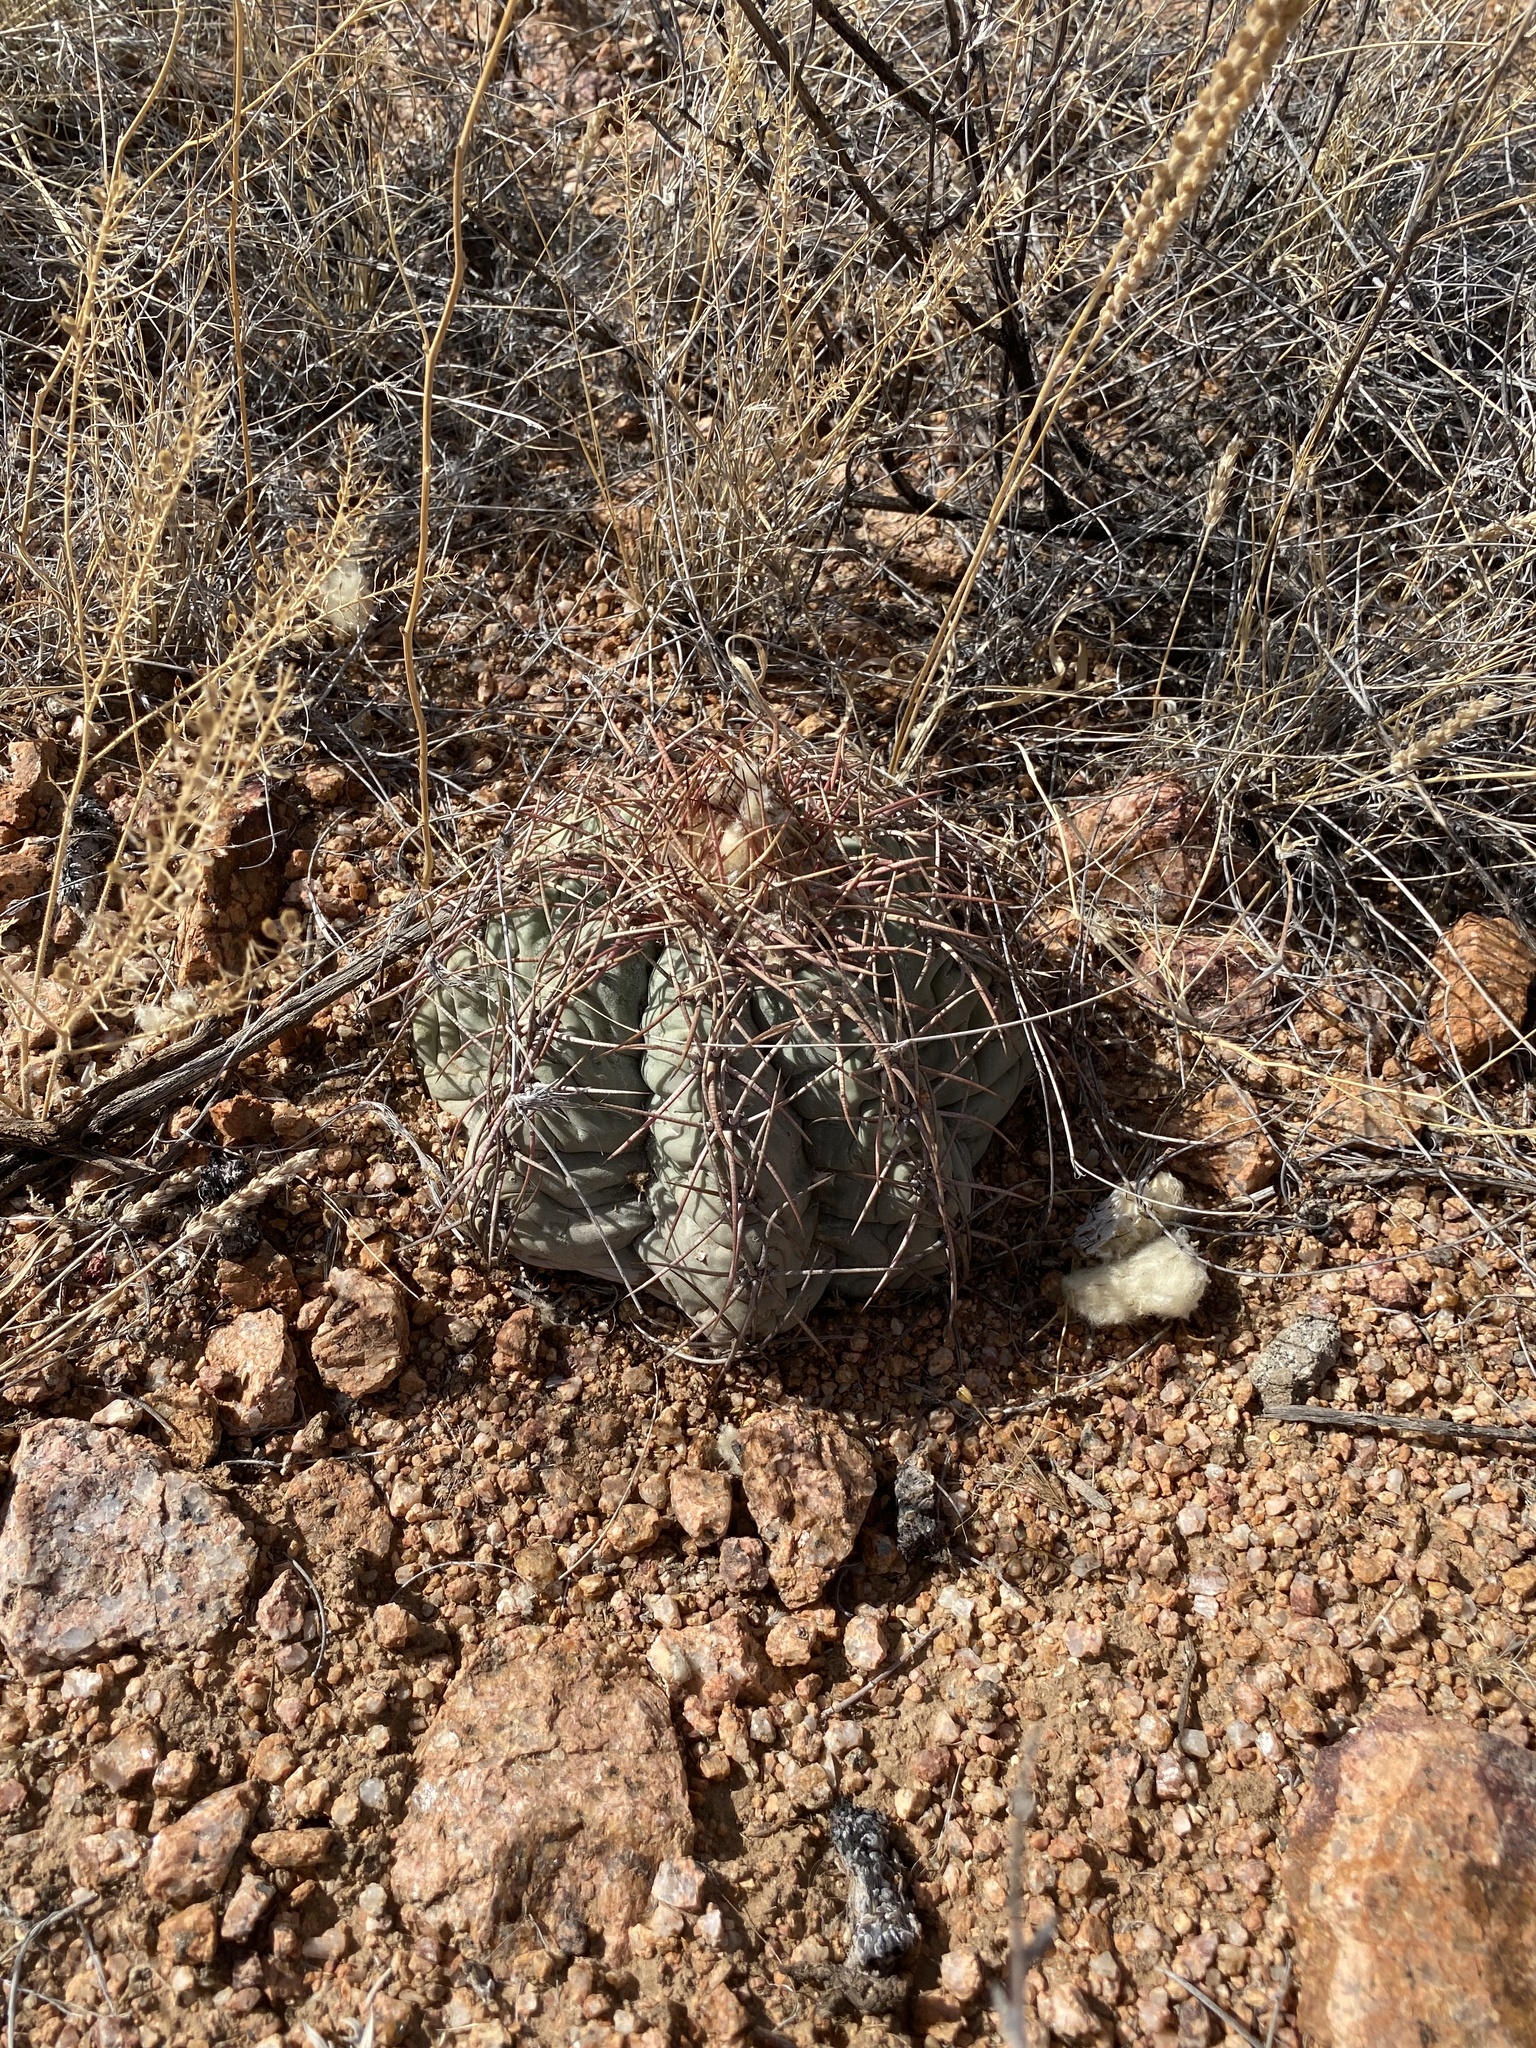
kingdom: Plantae
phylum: Tracheophyta
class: Magnoliopsida
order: Caryophyllales
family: Cactaceae
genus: Echinocactus
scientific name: Echinocactus horizonthalonius
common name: Devilshead
